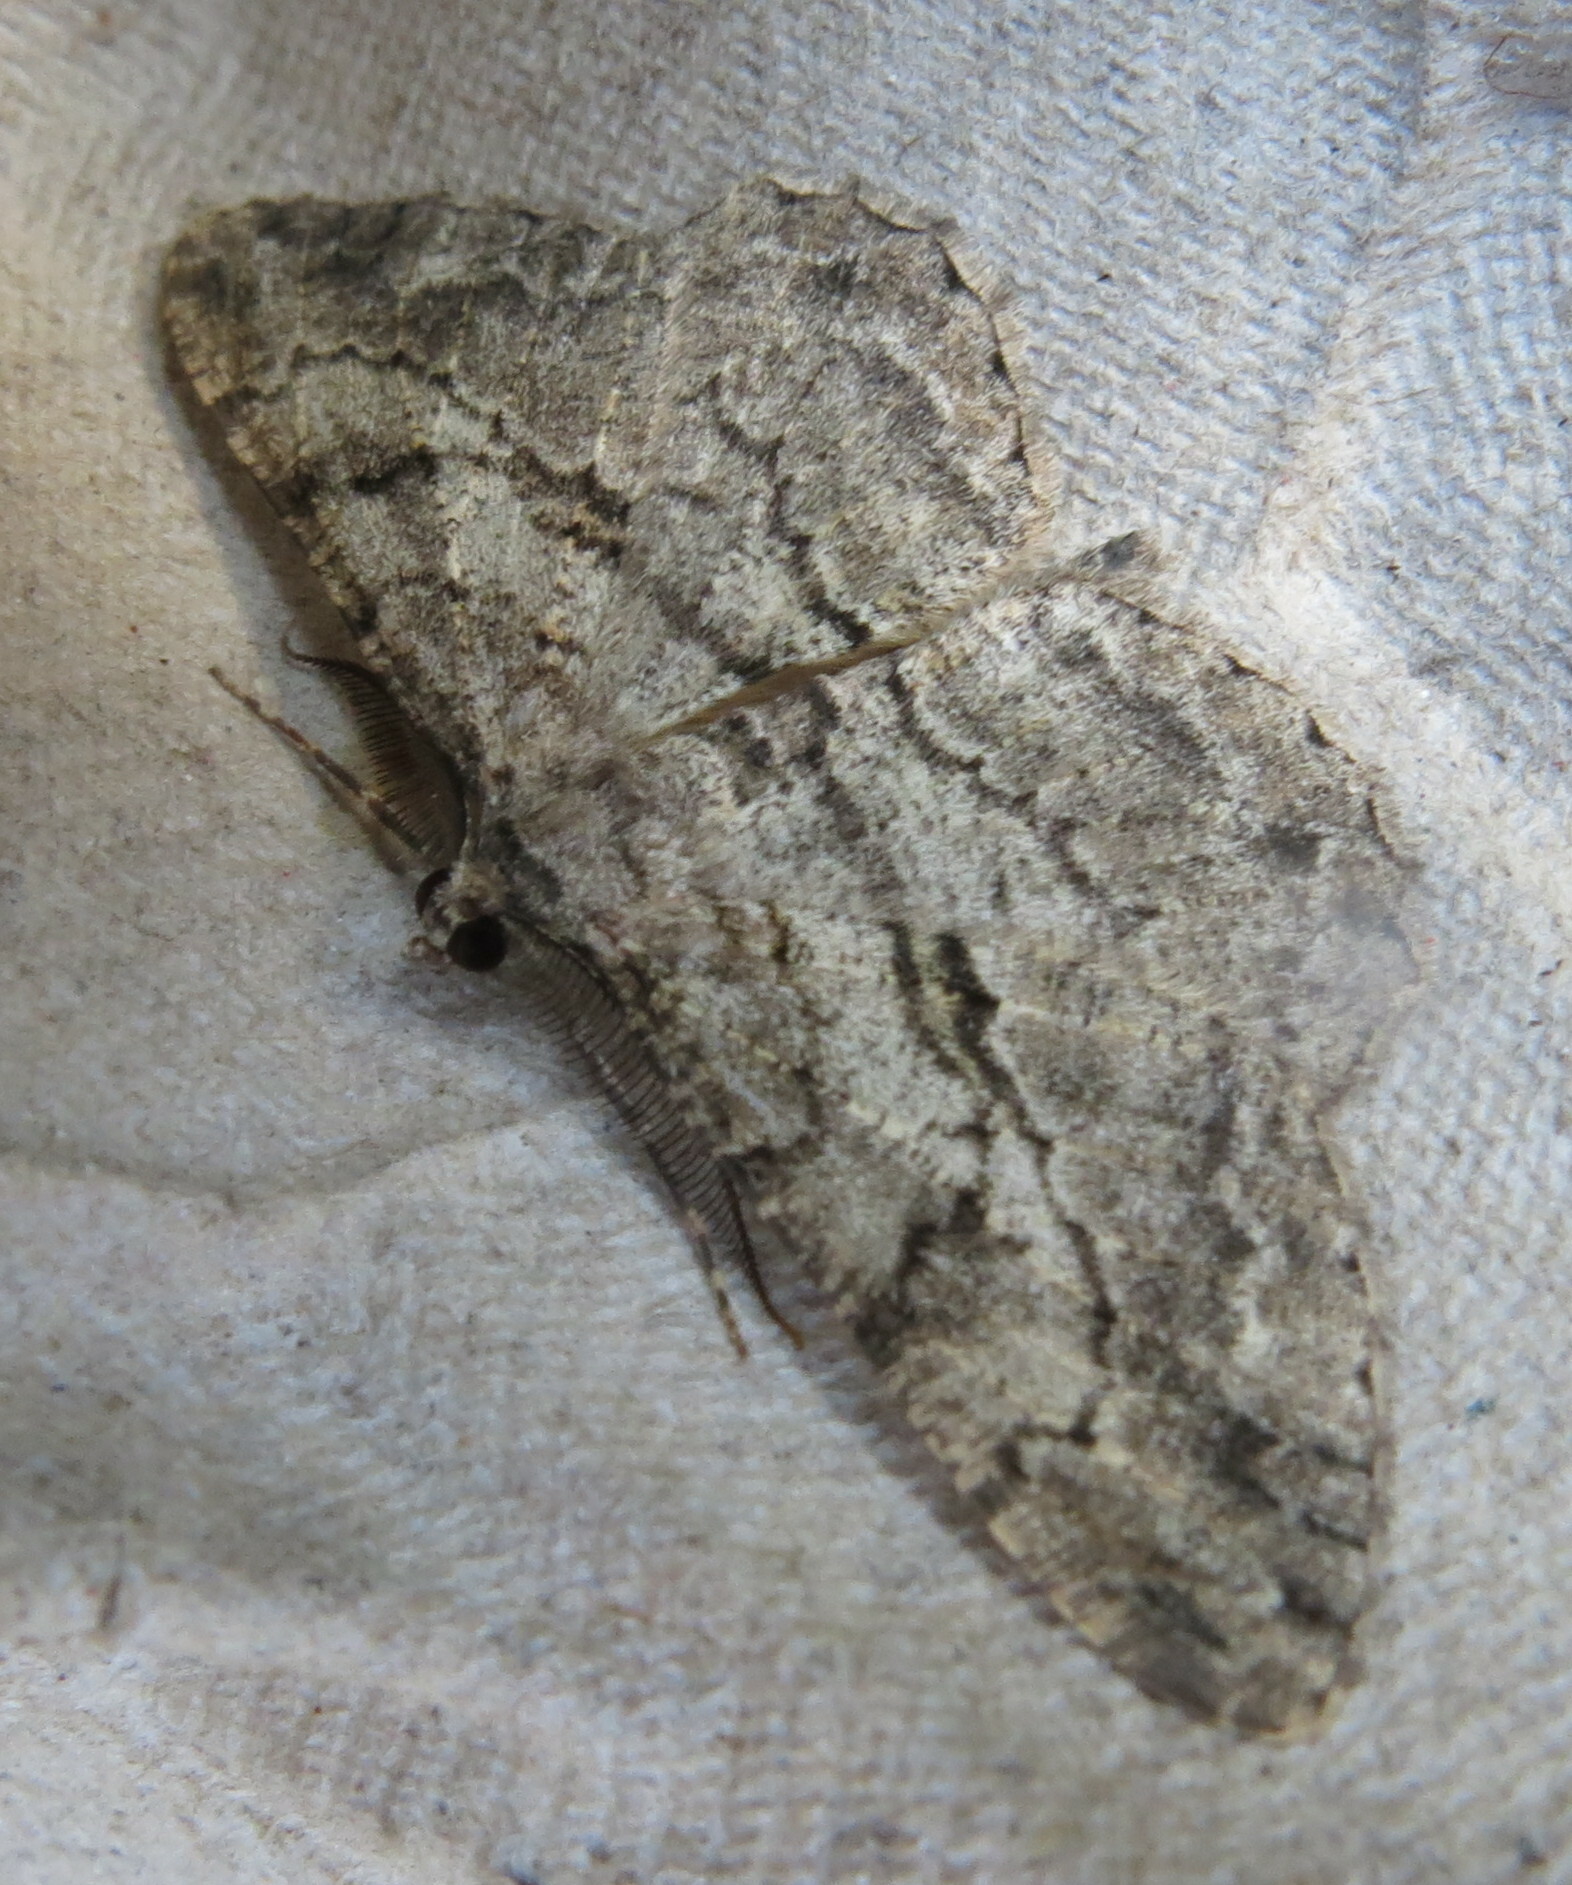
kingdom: Animalia
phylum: Arthropoda
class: Insecta
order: Lepidoptera
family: Geometridae
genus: Peribatodes
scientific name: Peribatodes rhomboidaria
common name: Willow beauty
